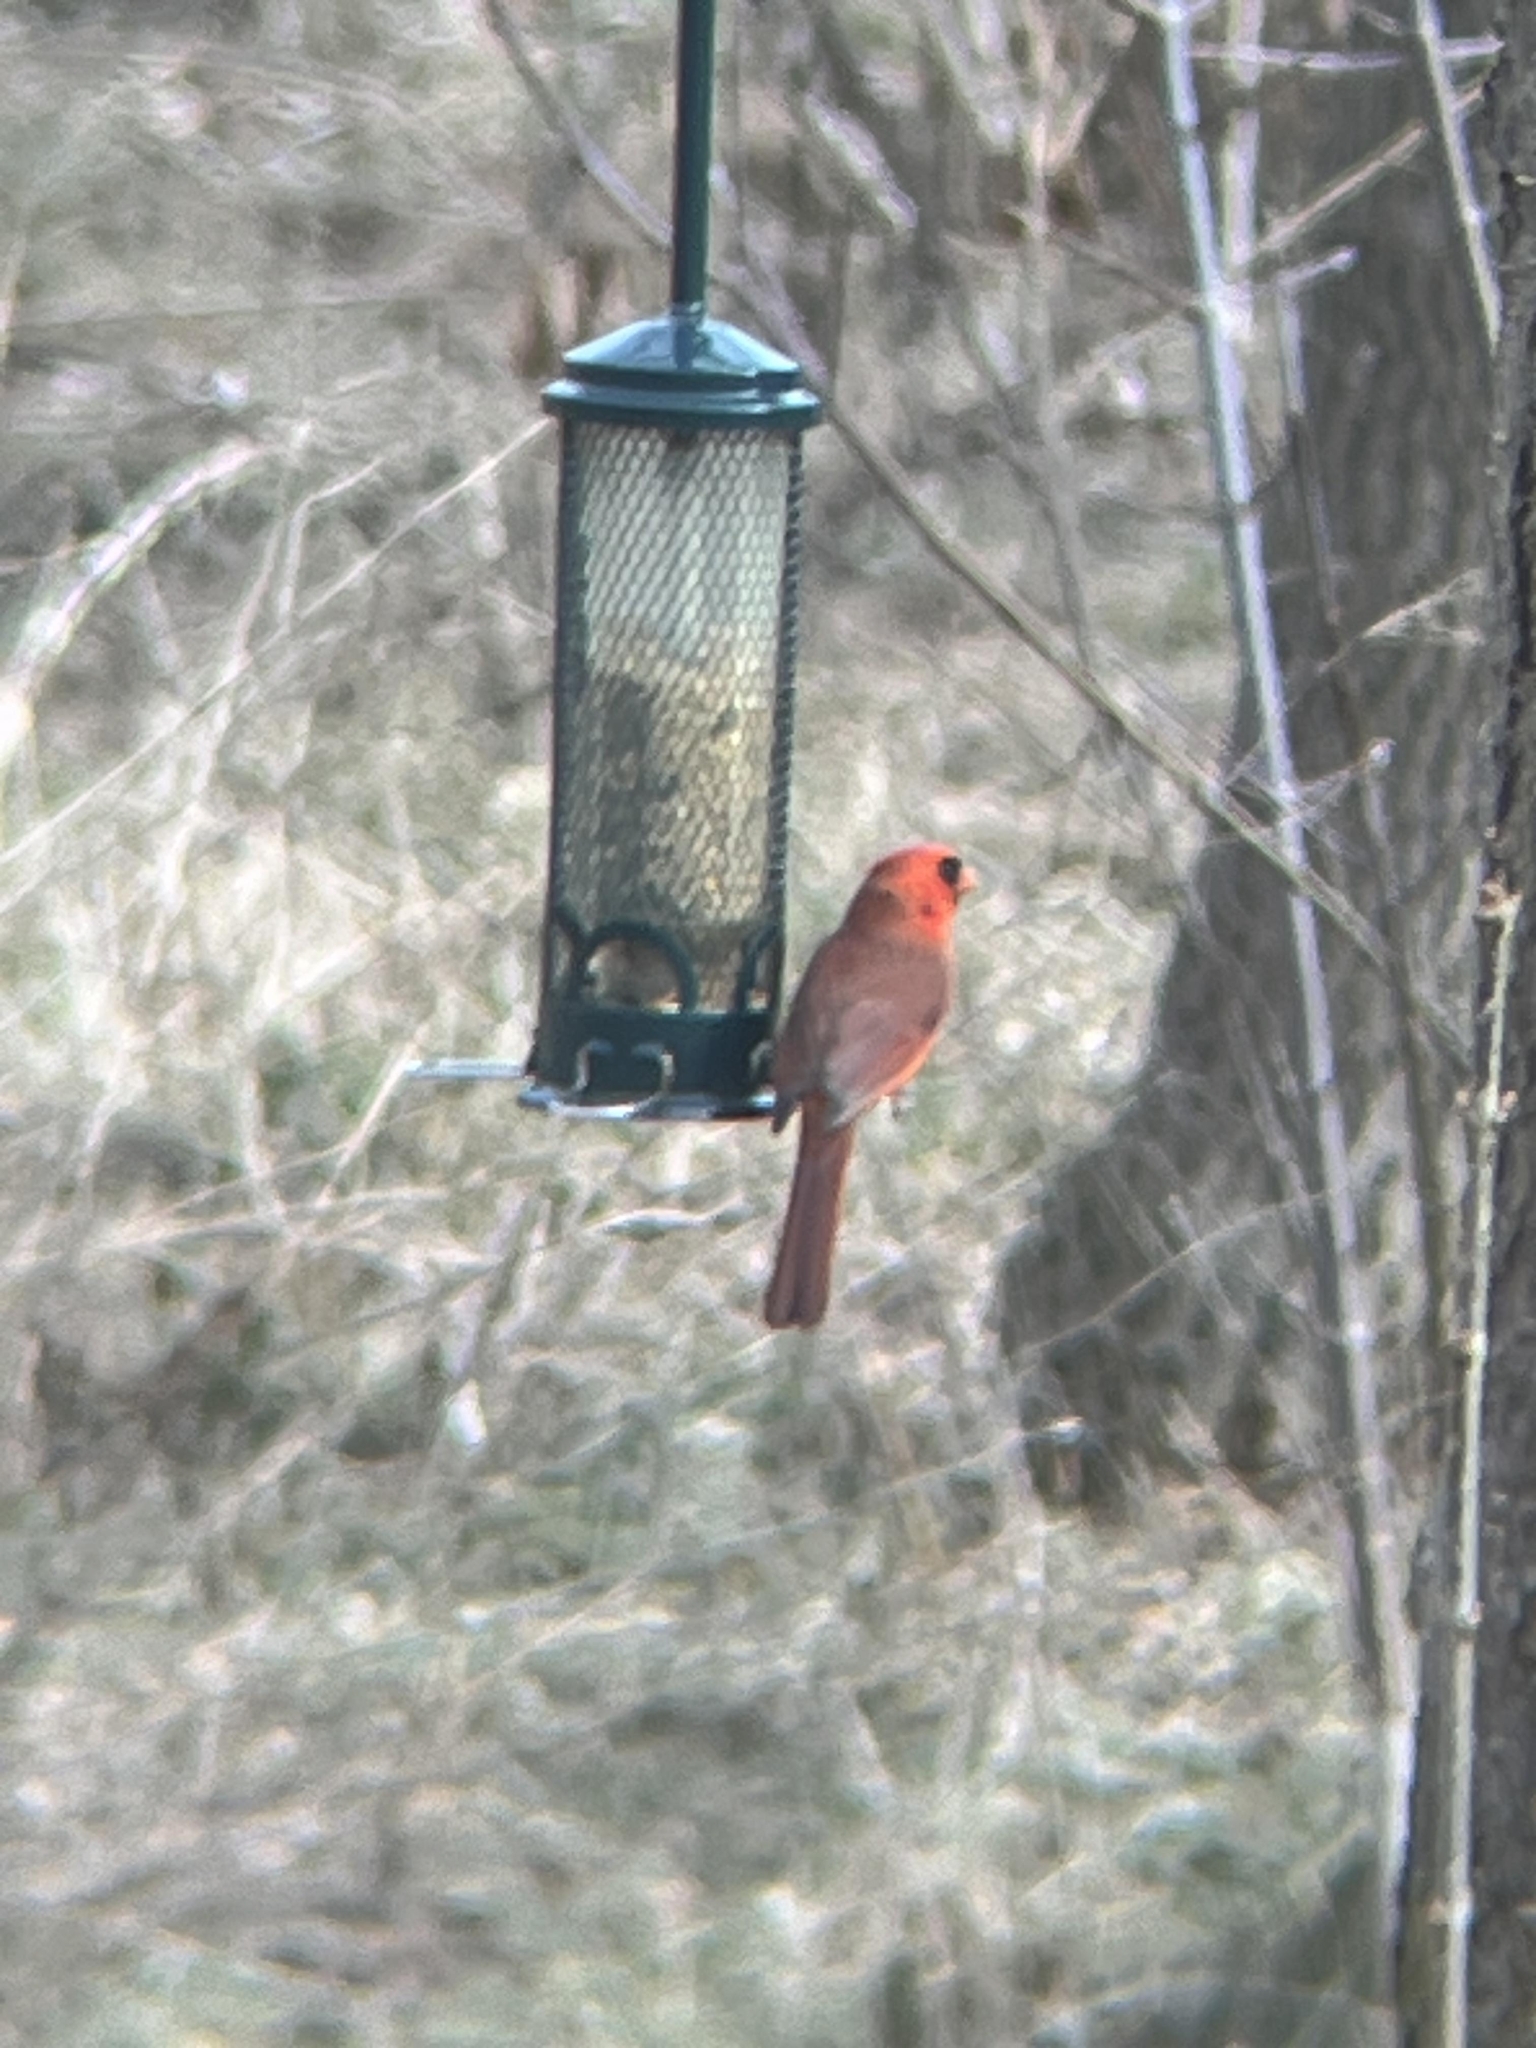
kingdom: Animalia
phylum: Chordata
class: Aves
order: Passeriformes
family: Cardinalidae
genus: Cardinalis
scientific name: Cardinalis cardinalis
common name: Northern cardinal
